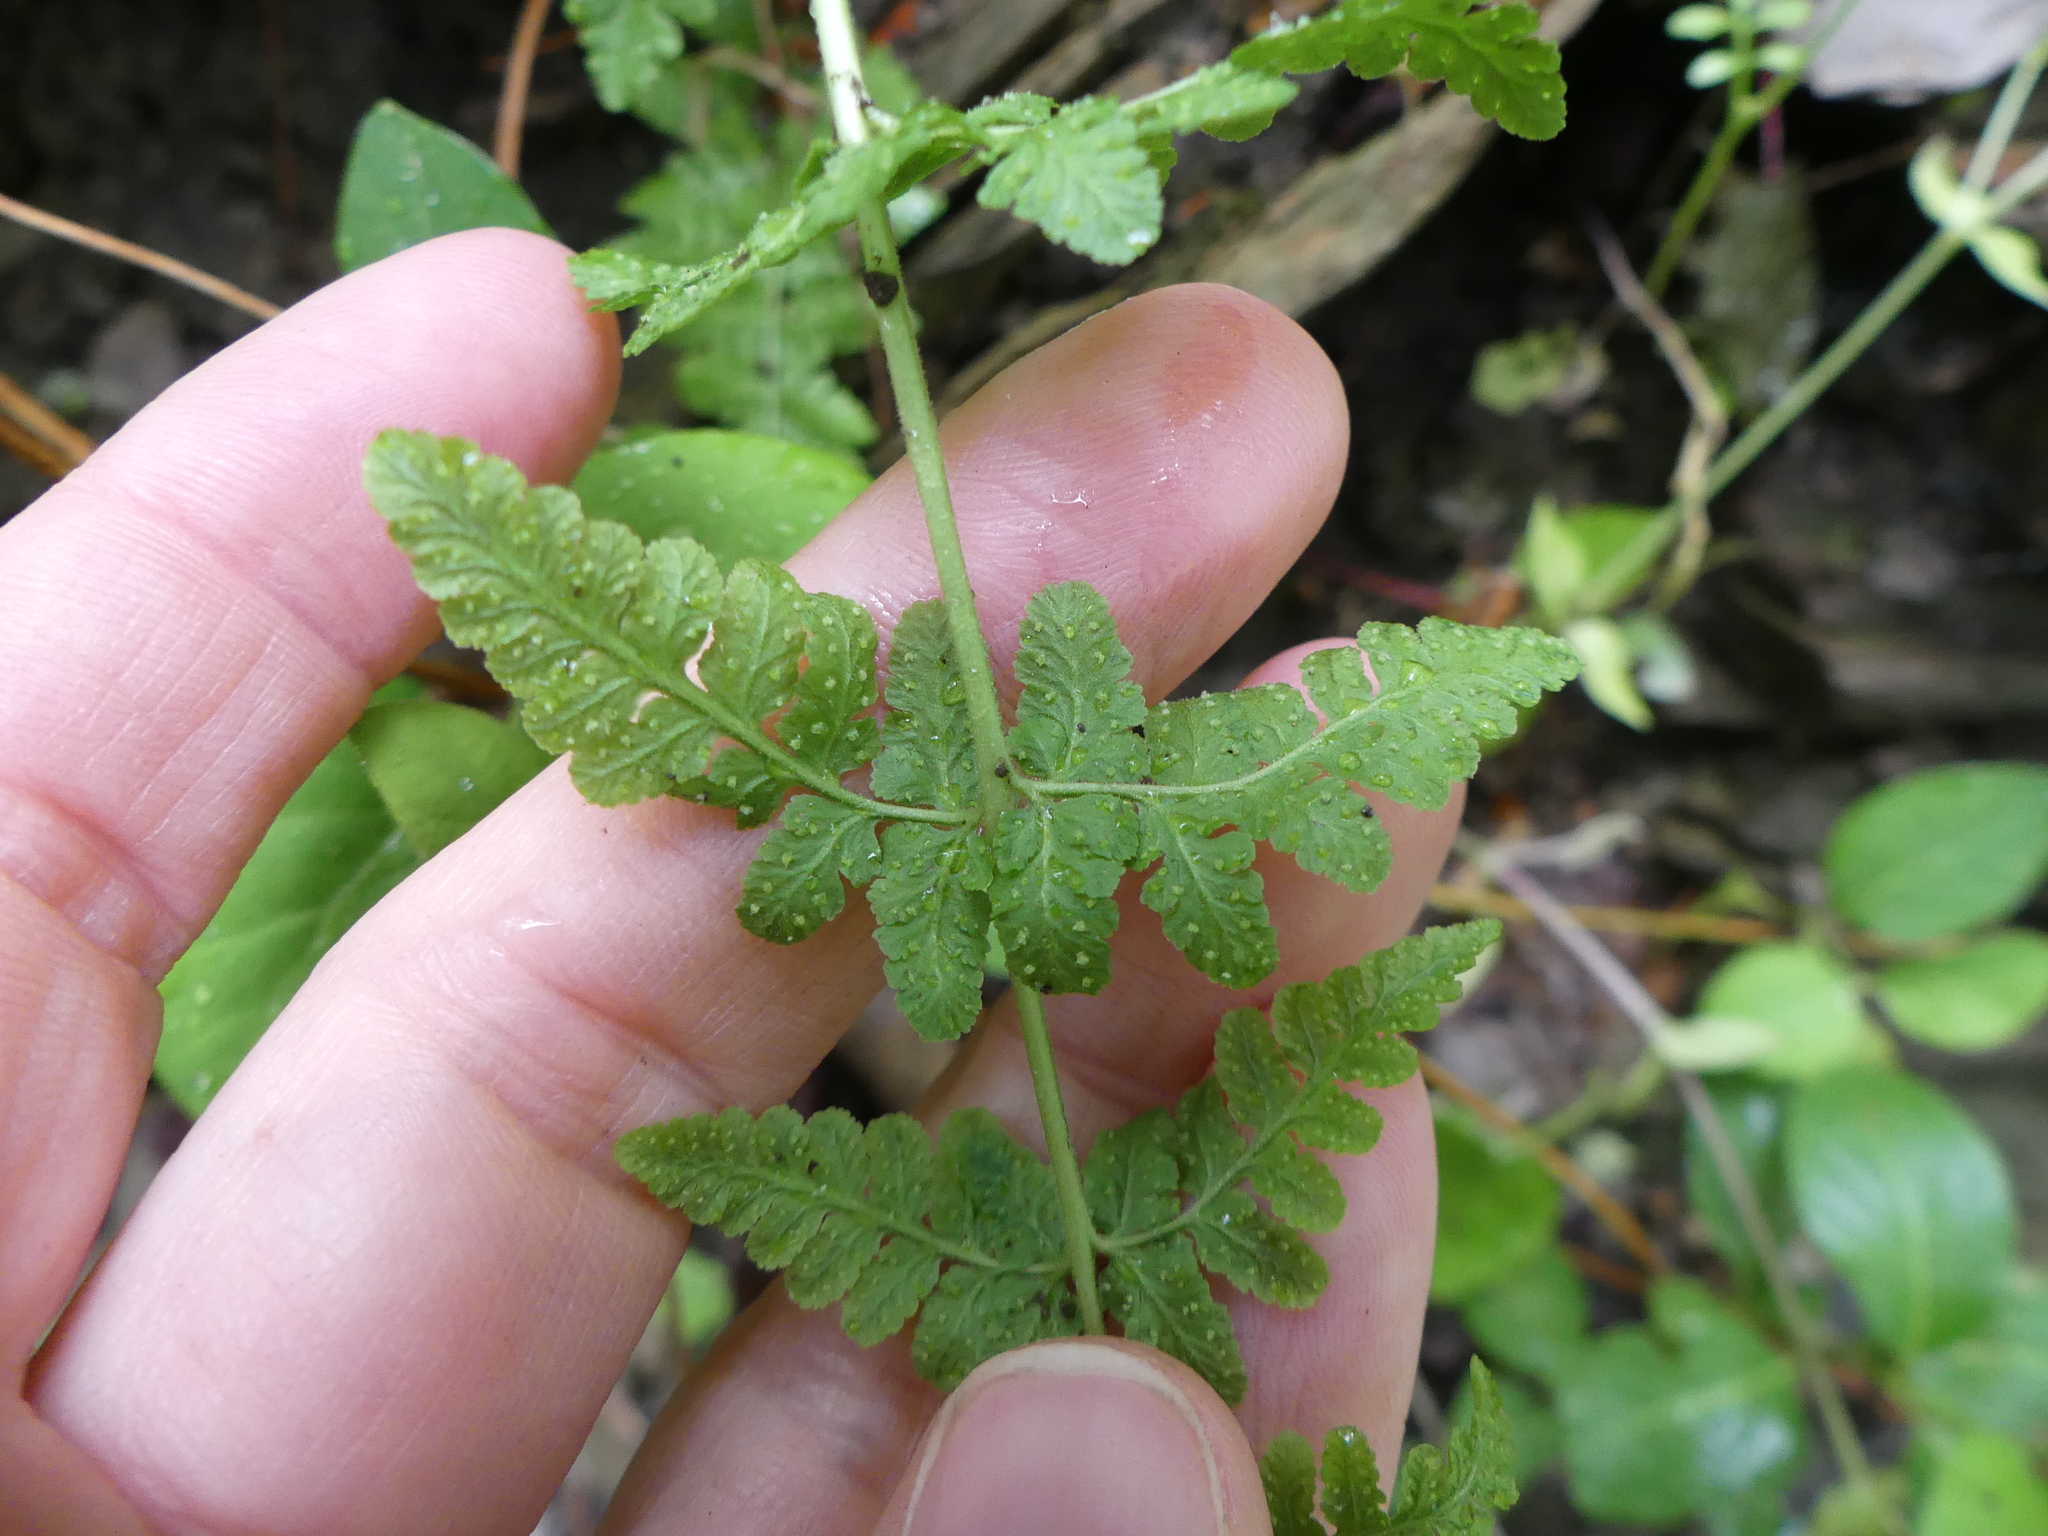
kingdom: Plantae
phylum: Tracheophyta
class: Polypodiopsida
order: Polypodiales
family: Woodsiaceae
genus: Physematium
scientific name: Physematium obtusum
